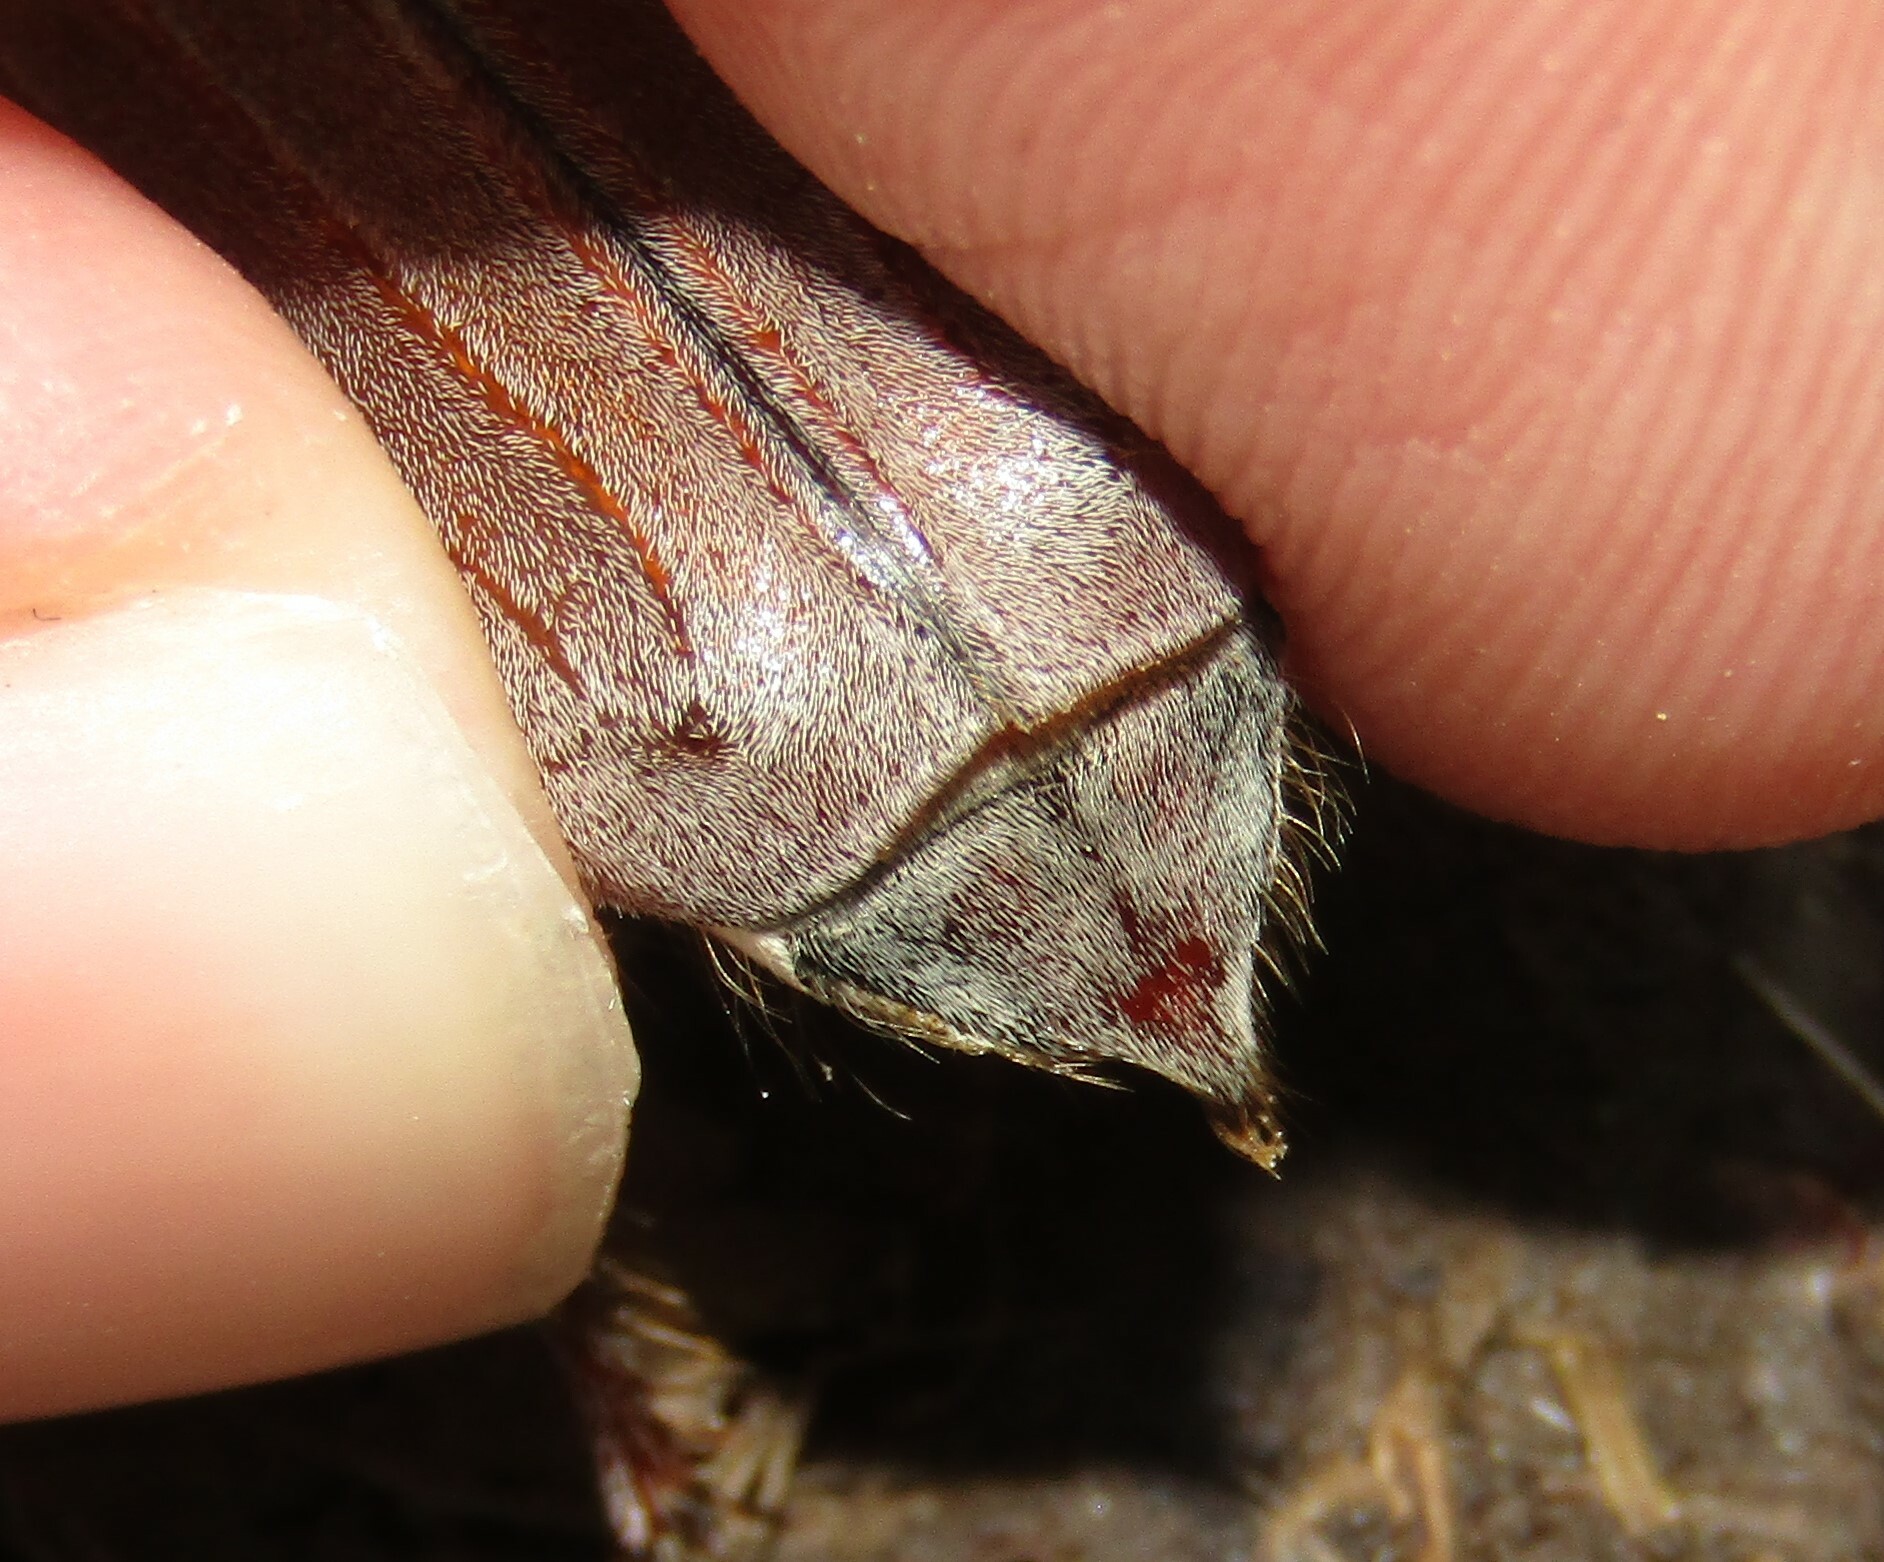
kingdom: Animalia
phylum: Arthropoda
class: Insecta
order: Coleoptera
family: Scarabaeidae
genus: Melolontha
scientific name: Melolontha hippocastani
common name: Chestnut cockchafer
